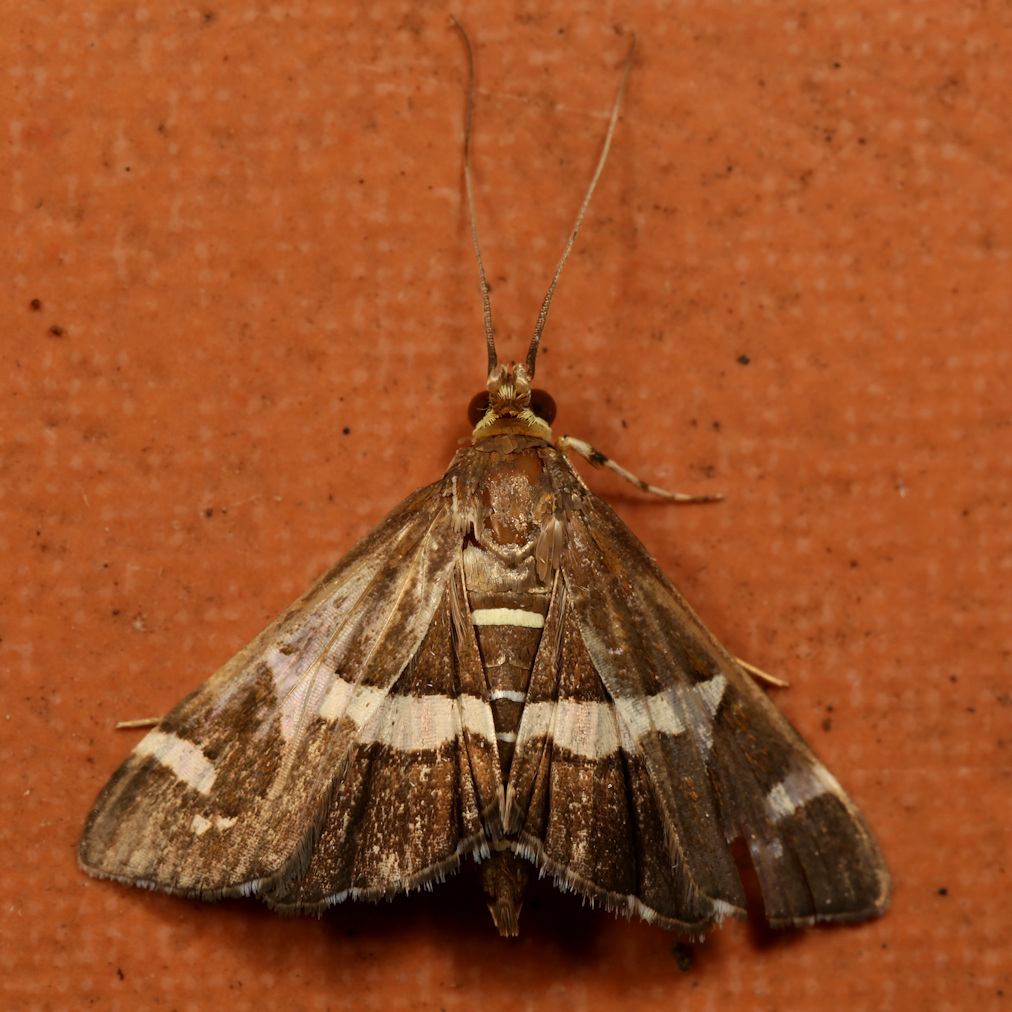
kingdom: Animalia
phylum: Arthropoda
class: Insecta
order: Lepidoptera
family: Crambidae
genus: Spoladea
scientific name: Spoladea recurvalis
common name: Beet webworm moth
